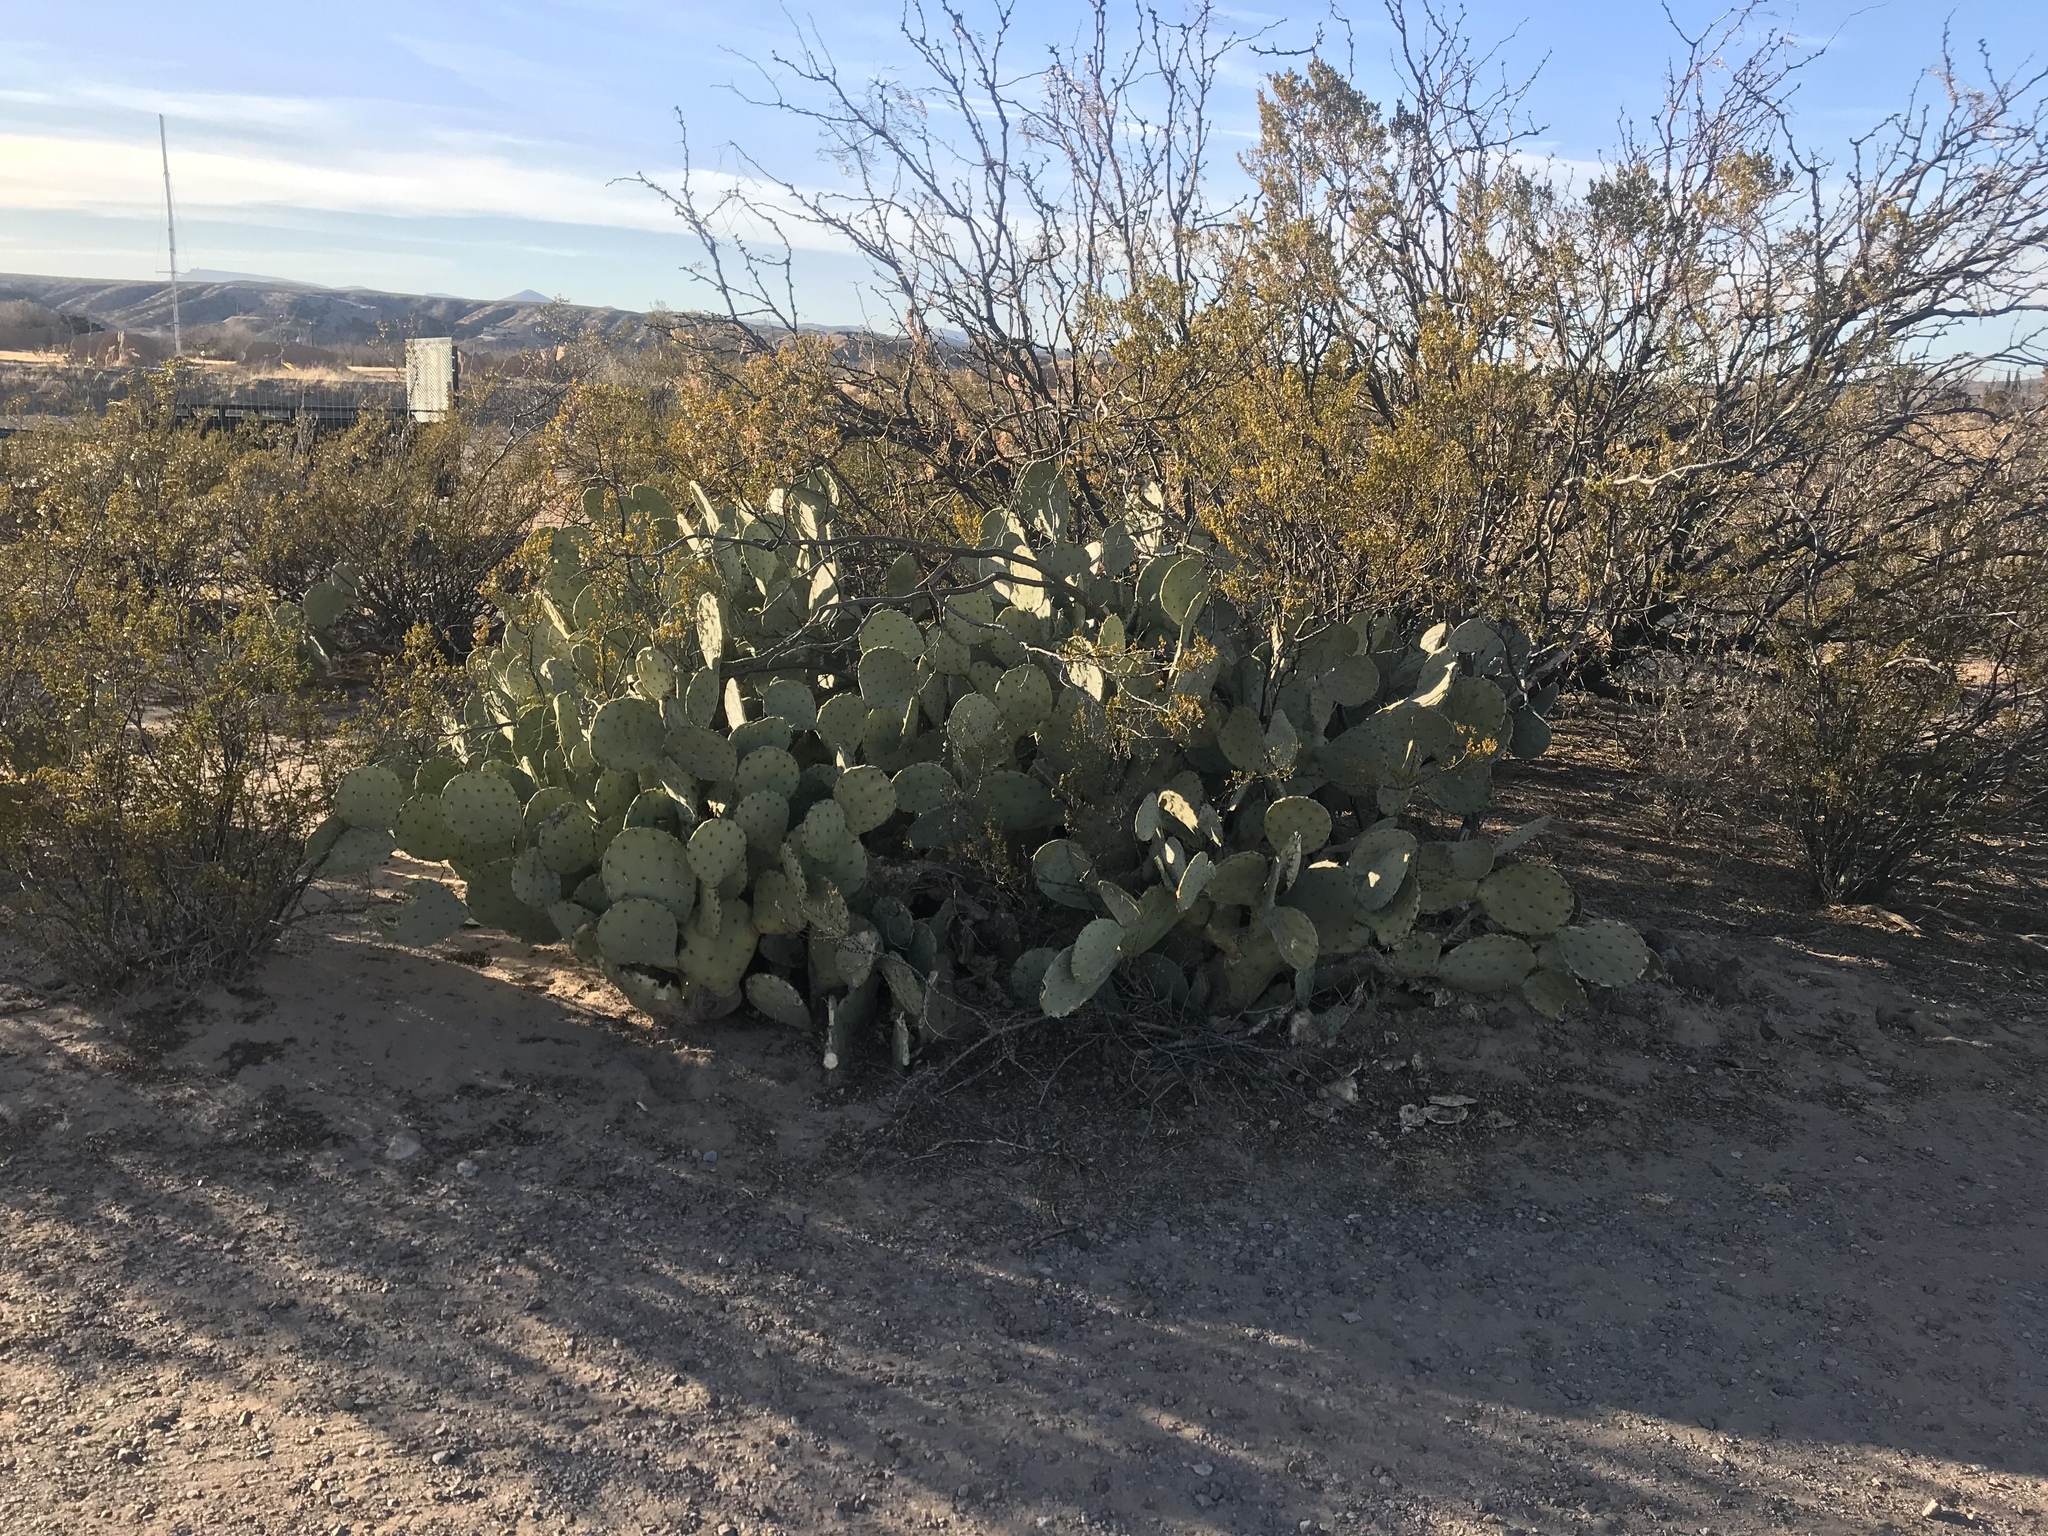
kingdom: Plantae
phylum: Tracheophyta
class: Magnoliopsida
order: Caryophyllales
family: Cactaceae
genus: Opuntia
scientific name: Opuntia engelmannii
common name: Cactus-apple
